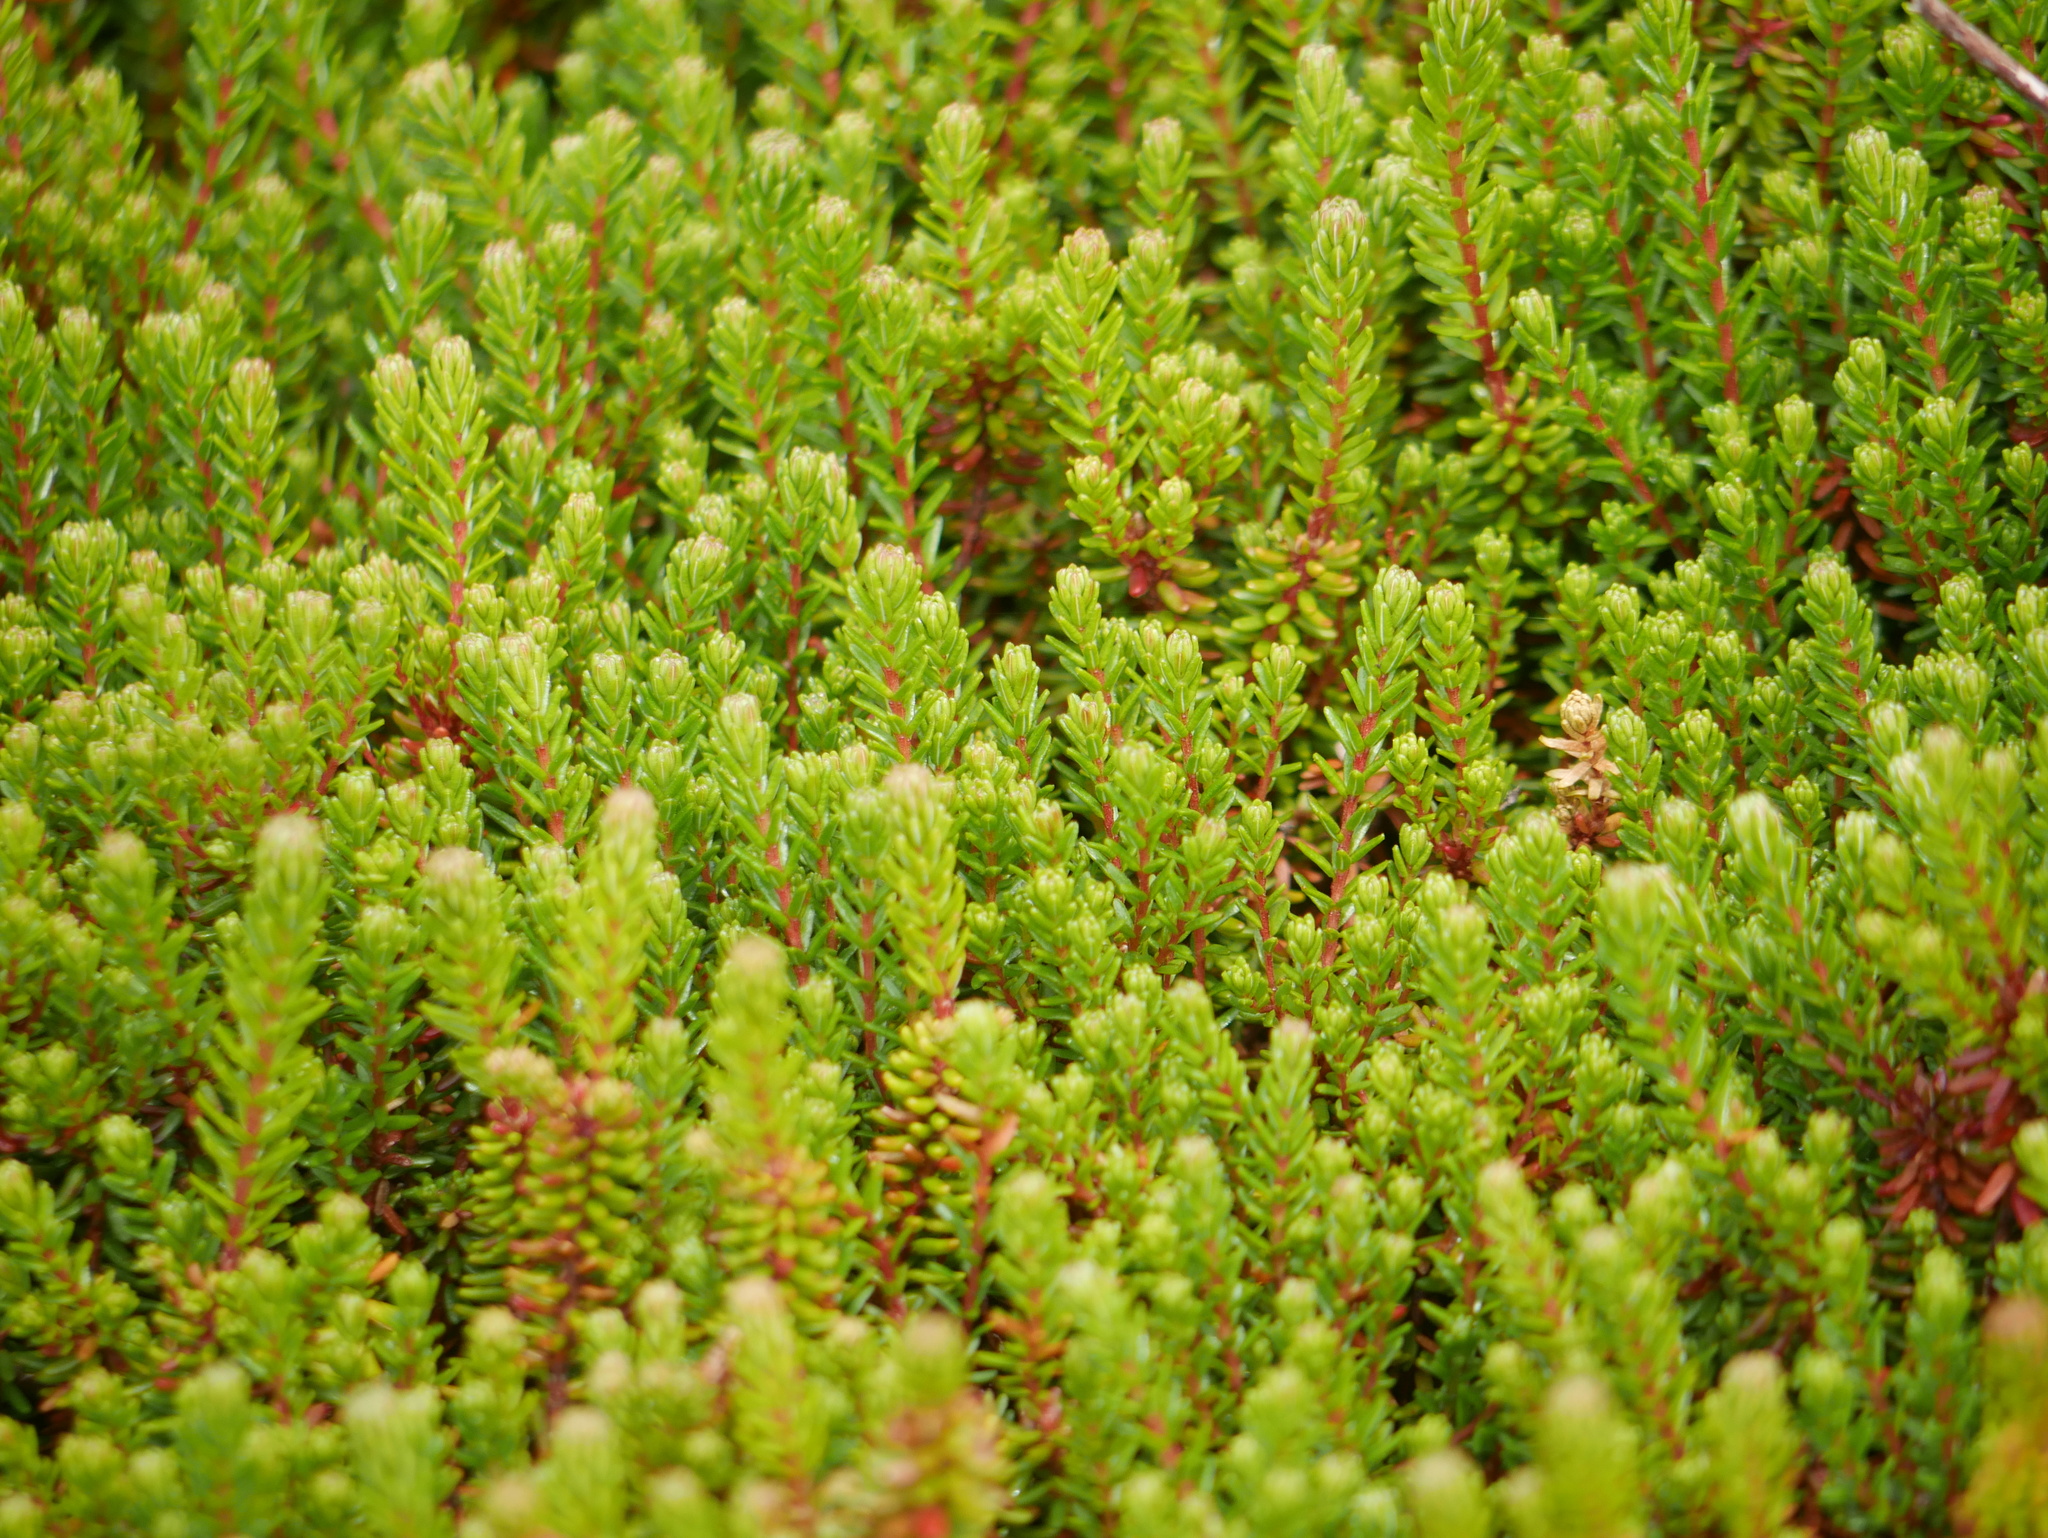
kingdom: Plantae
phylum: Tracheophyta
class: Magnoliopsida
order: Ericales
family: Ericaceae
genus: Empetrum
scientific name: Empetrum nigrum
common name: Black crowberry
